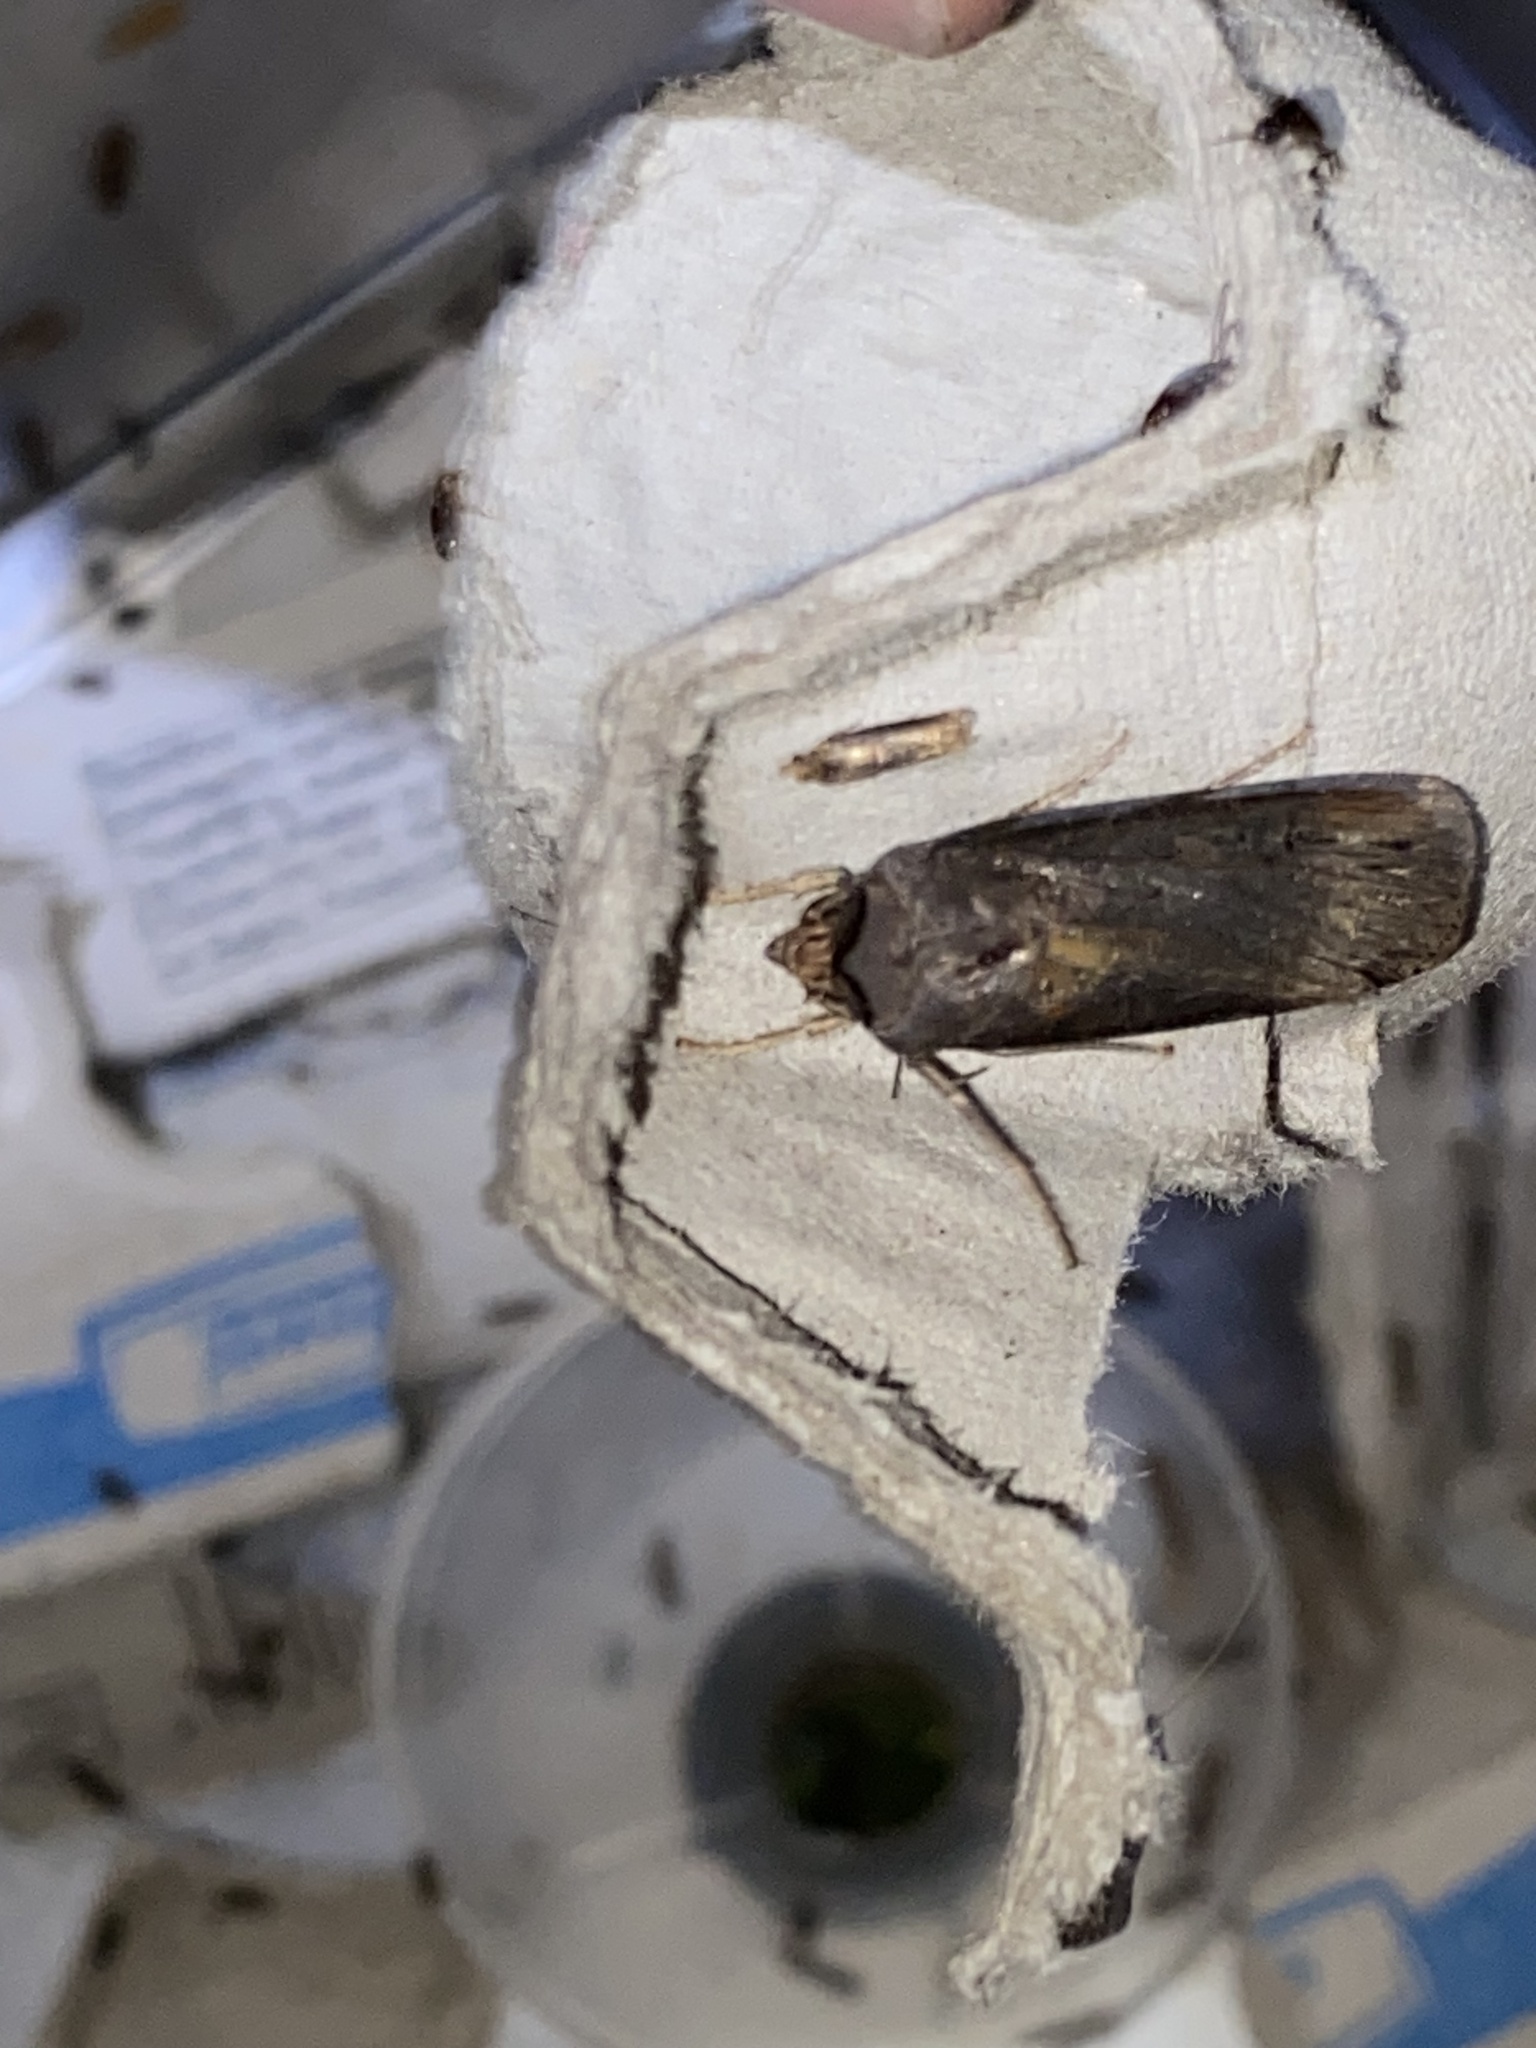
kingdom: Animalia
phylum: Arthropoda
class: Insecta
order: Lepidoptera
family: Noctuidae
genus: Agrotis
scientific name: Agrotis ipsilon
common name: Dark sword-grass
